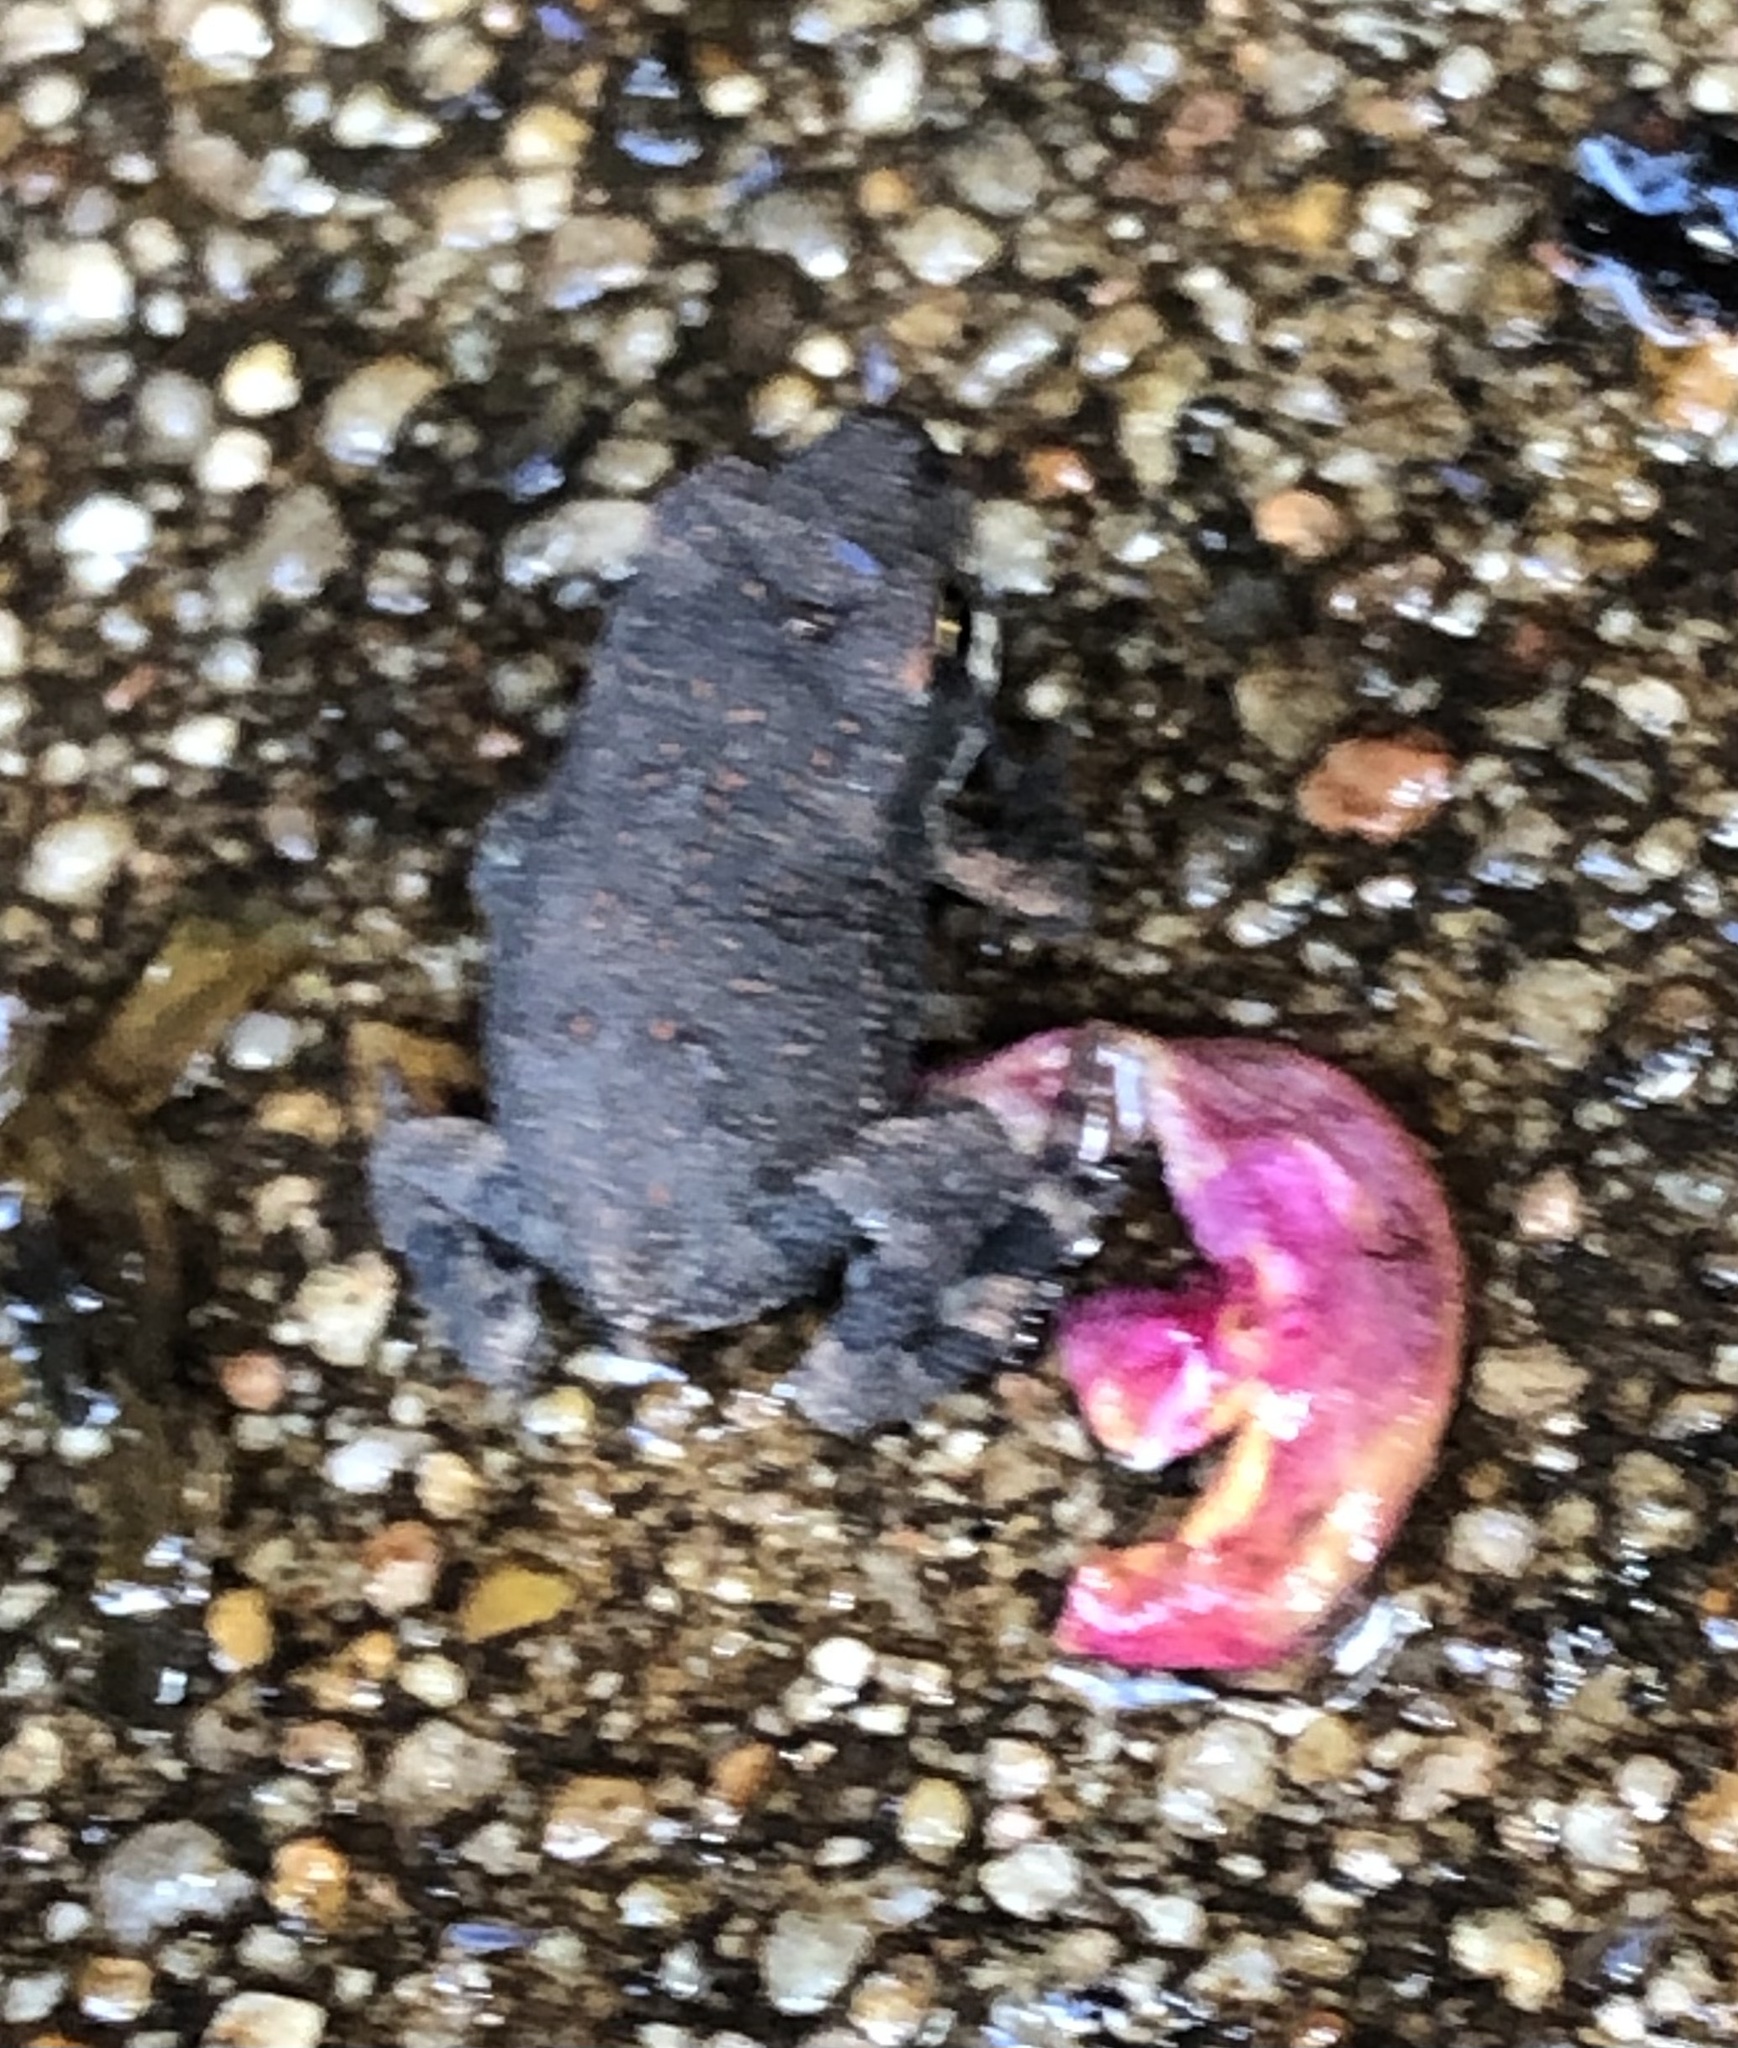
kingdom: Animalia
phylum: Chordata
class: Amphibia
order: Anura
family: Bufonidae
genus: Incilius
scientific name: Incilius nebulifer
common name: Gulf coast toad
